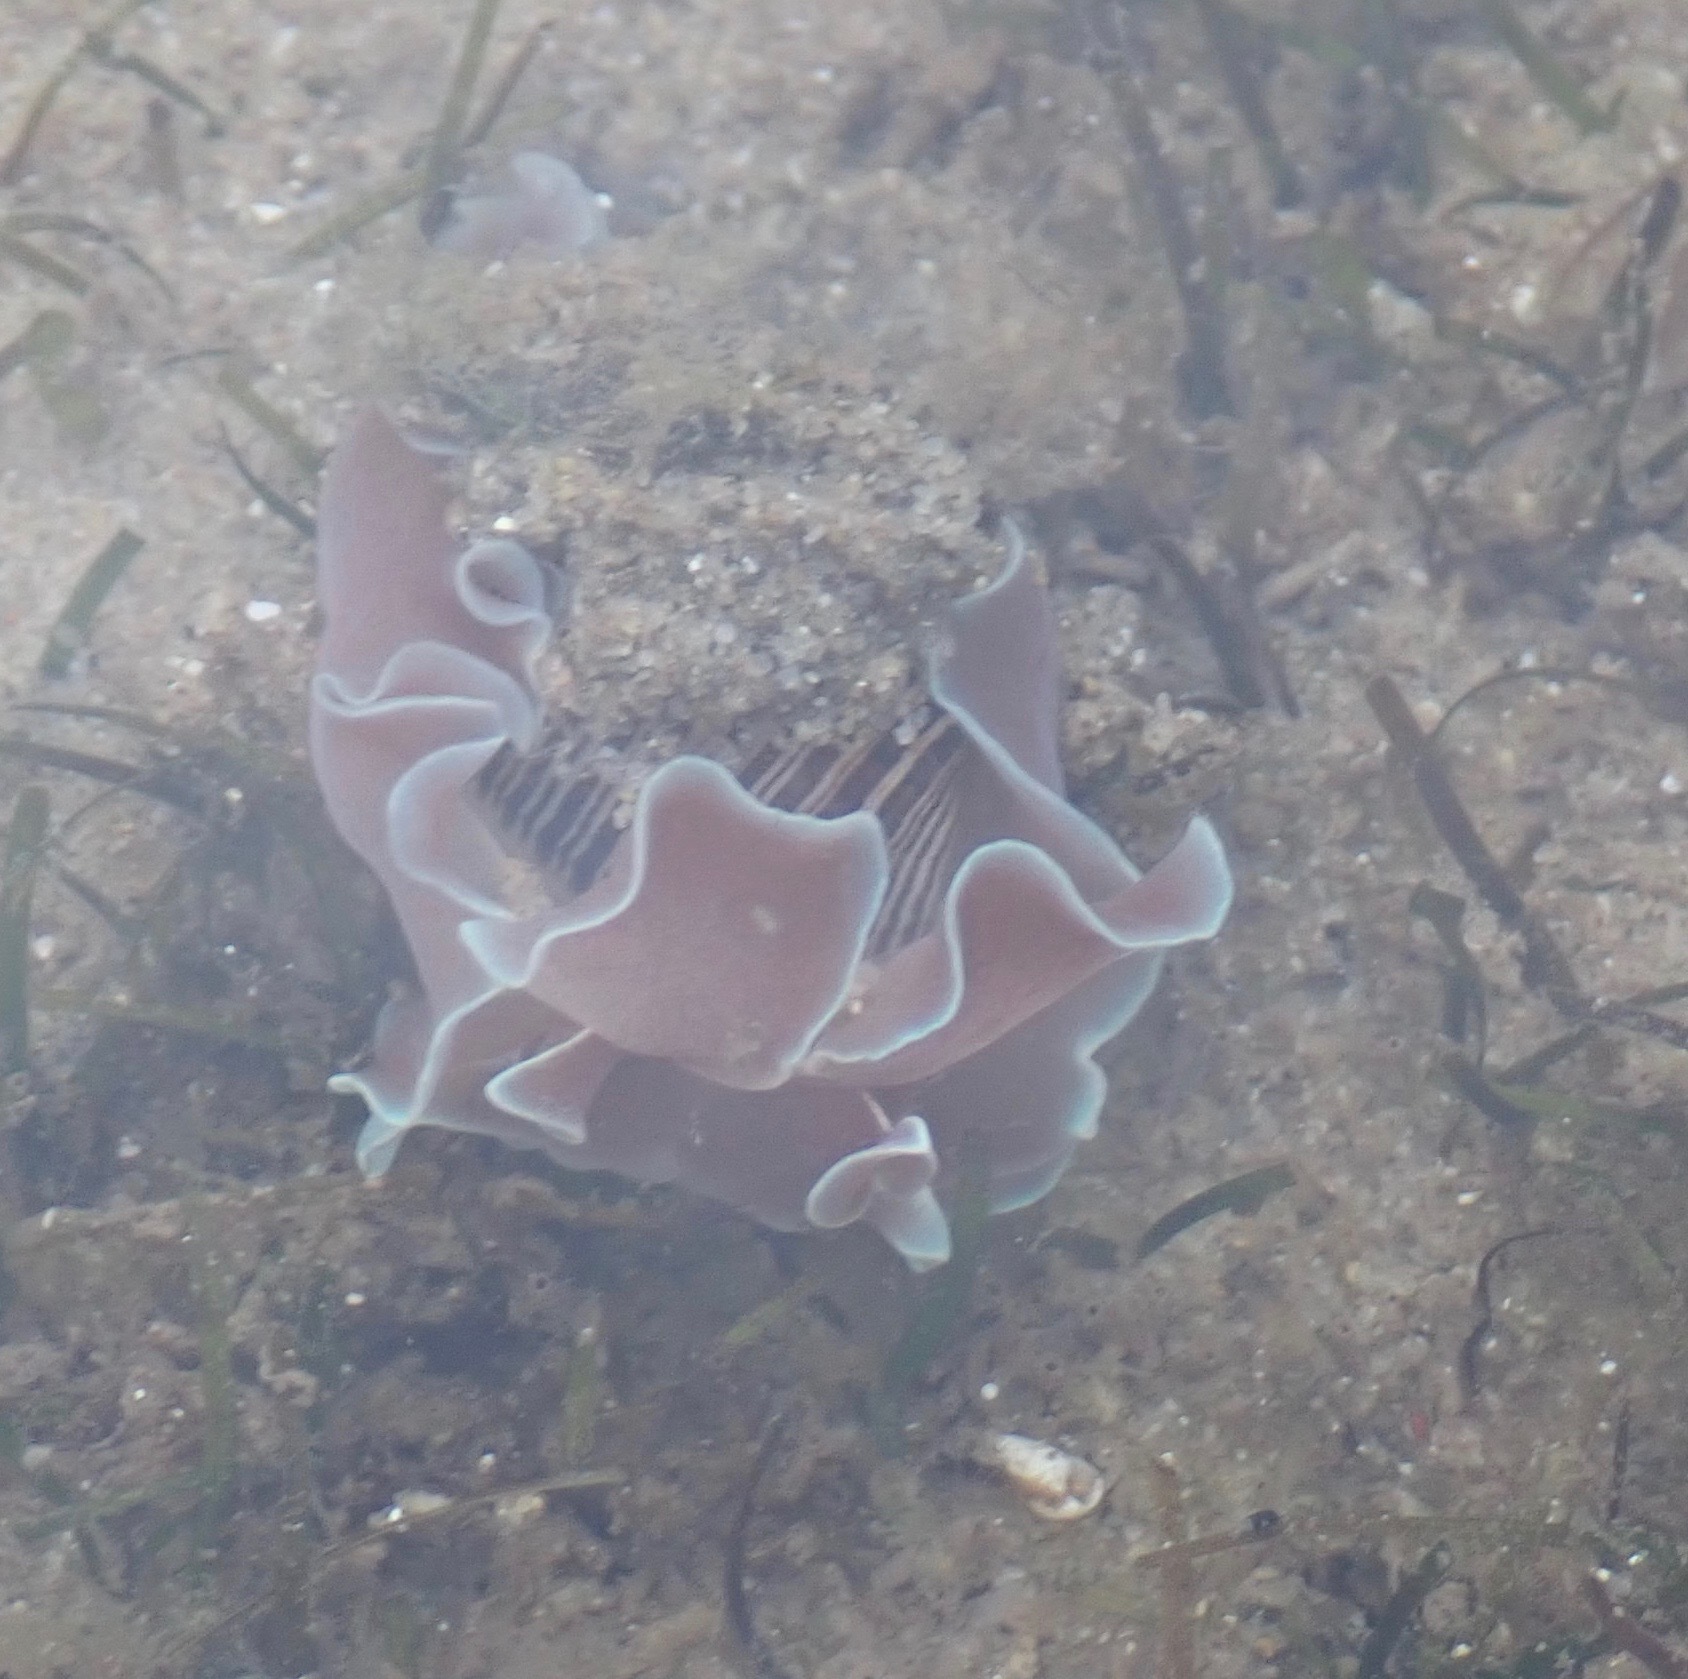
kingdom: Animalia
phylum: Mollusca
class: Gastropoda
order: Cephalaspidea
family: Aplustridae
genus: Hydatina
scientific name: Hydatina physis
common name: Brown-line paperbubble
